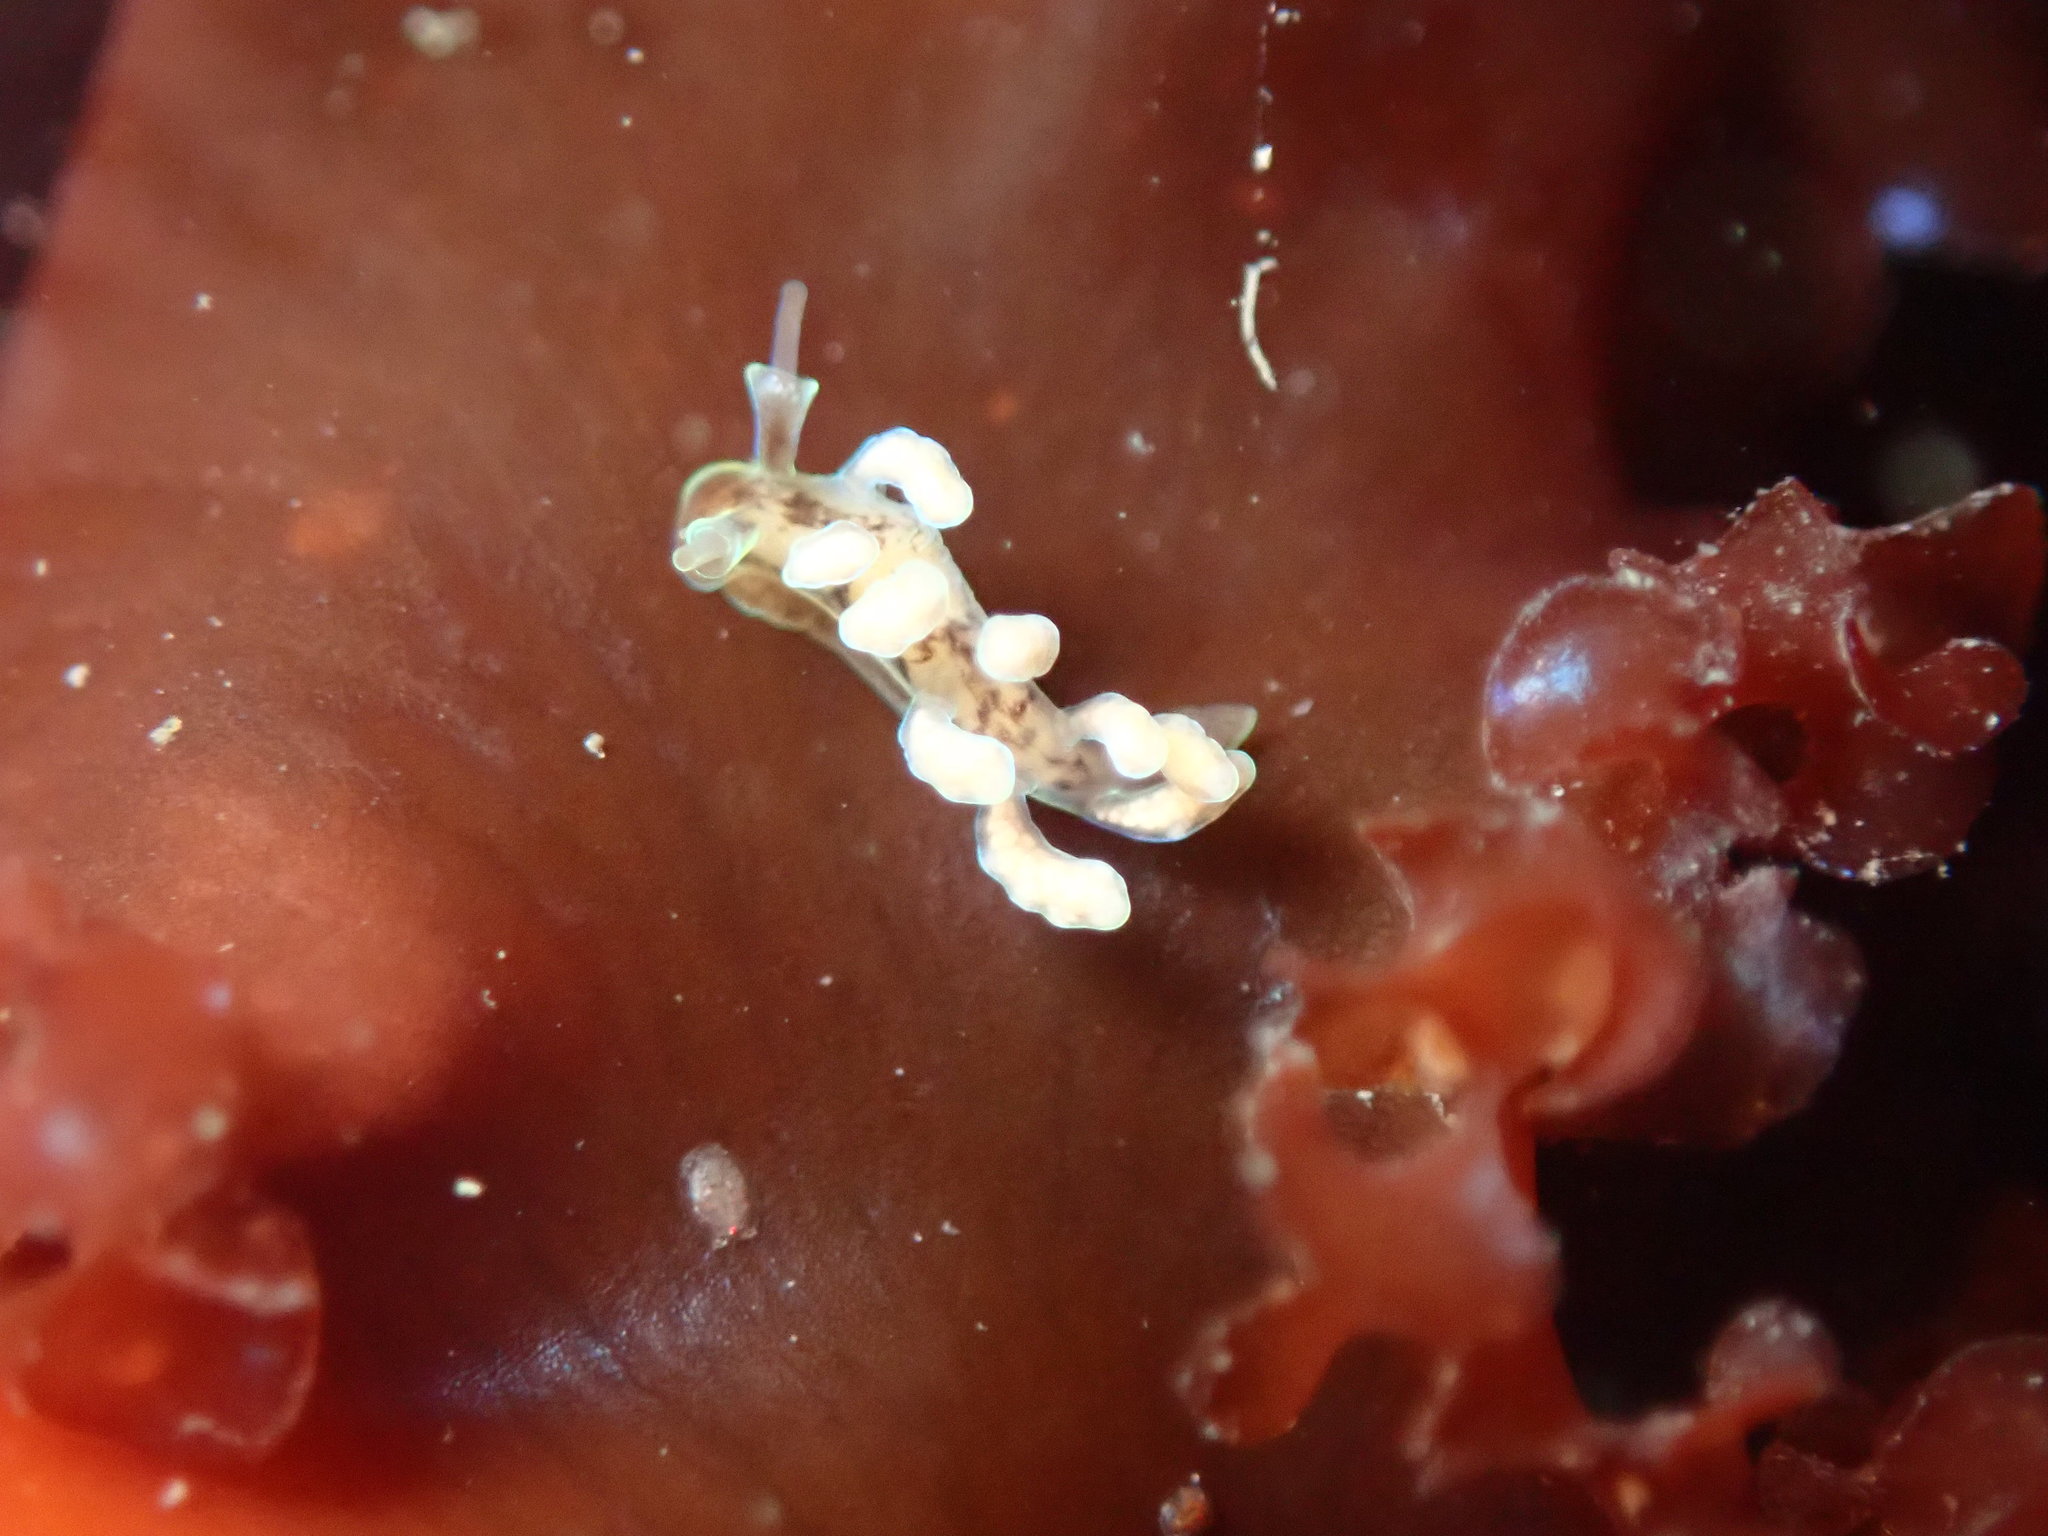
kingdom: Animalia
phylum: Mollusca
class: Gastropoda
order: Nudibranchia
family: Dotidae
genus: Doto
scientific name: Doto columbiana
